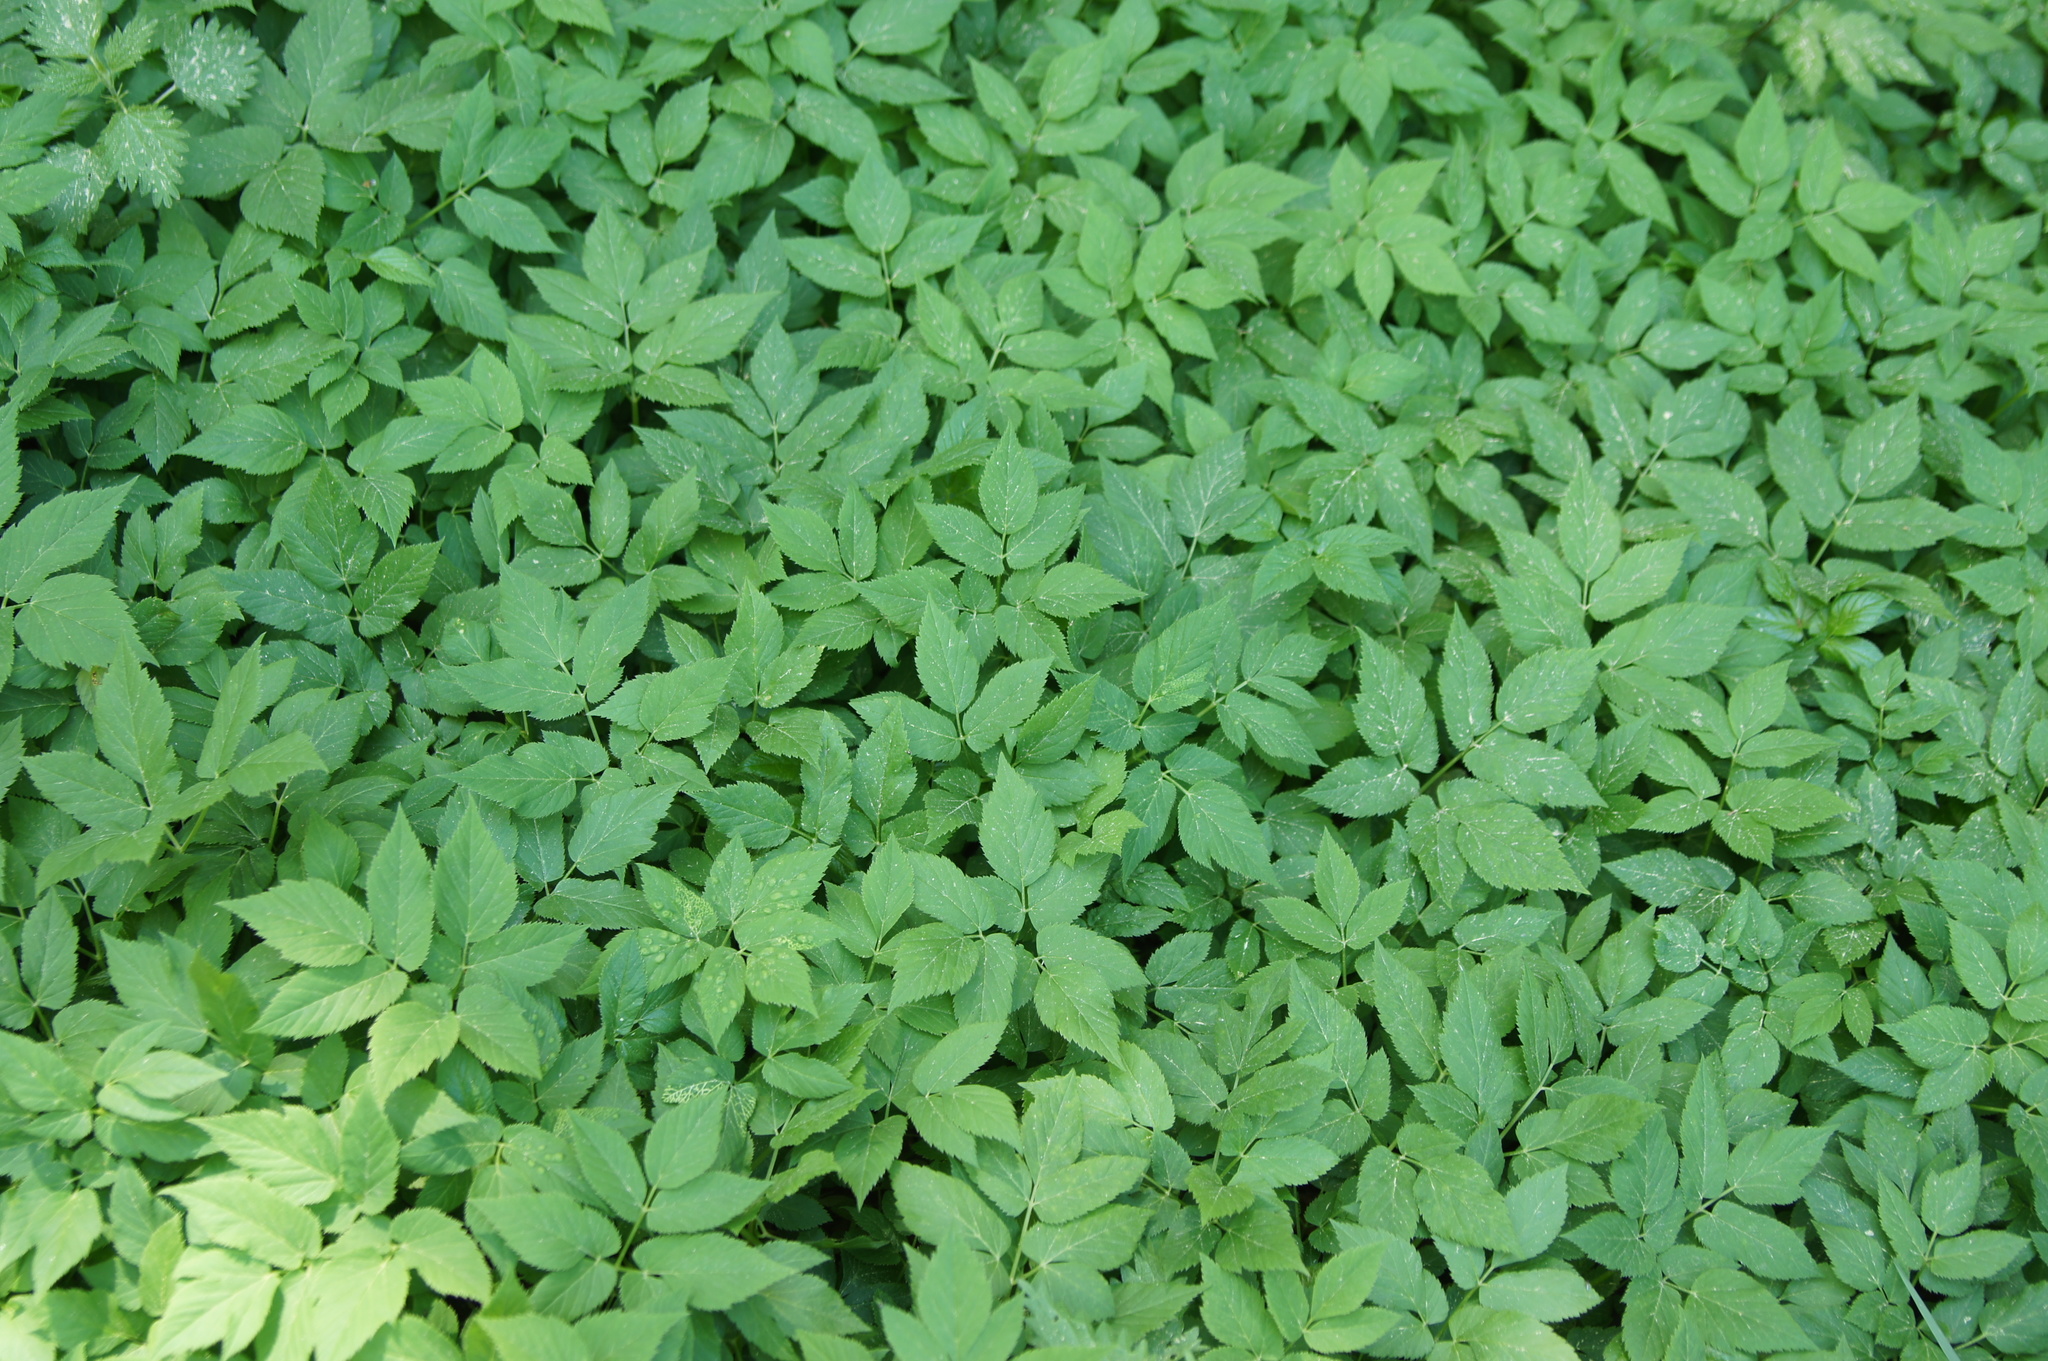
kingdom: Plantae
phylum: Tracheophyta
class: Magnoliopsida
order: Apiales
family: Apiaceae
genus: Aegopodium
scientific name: Aegopodium podagraria
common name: Ground-elder
